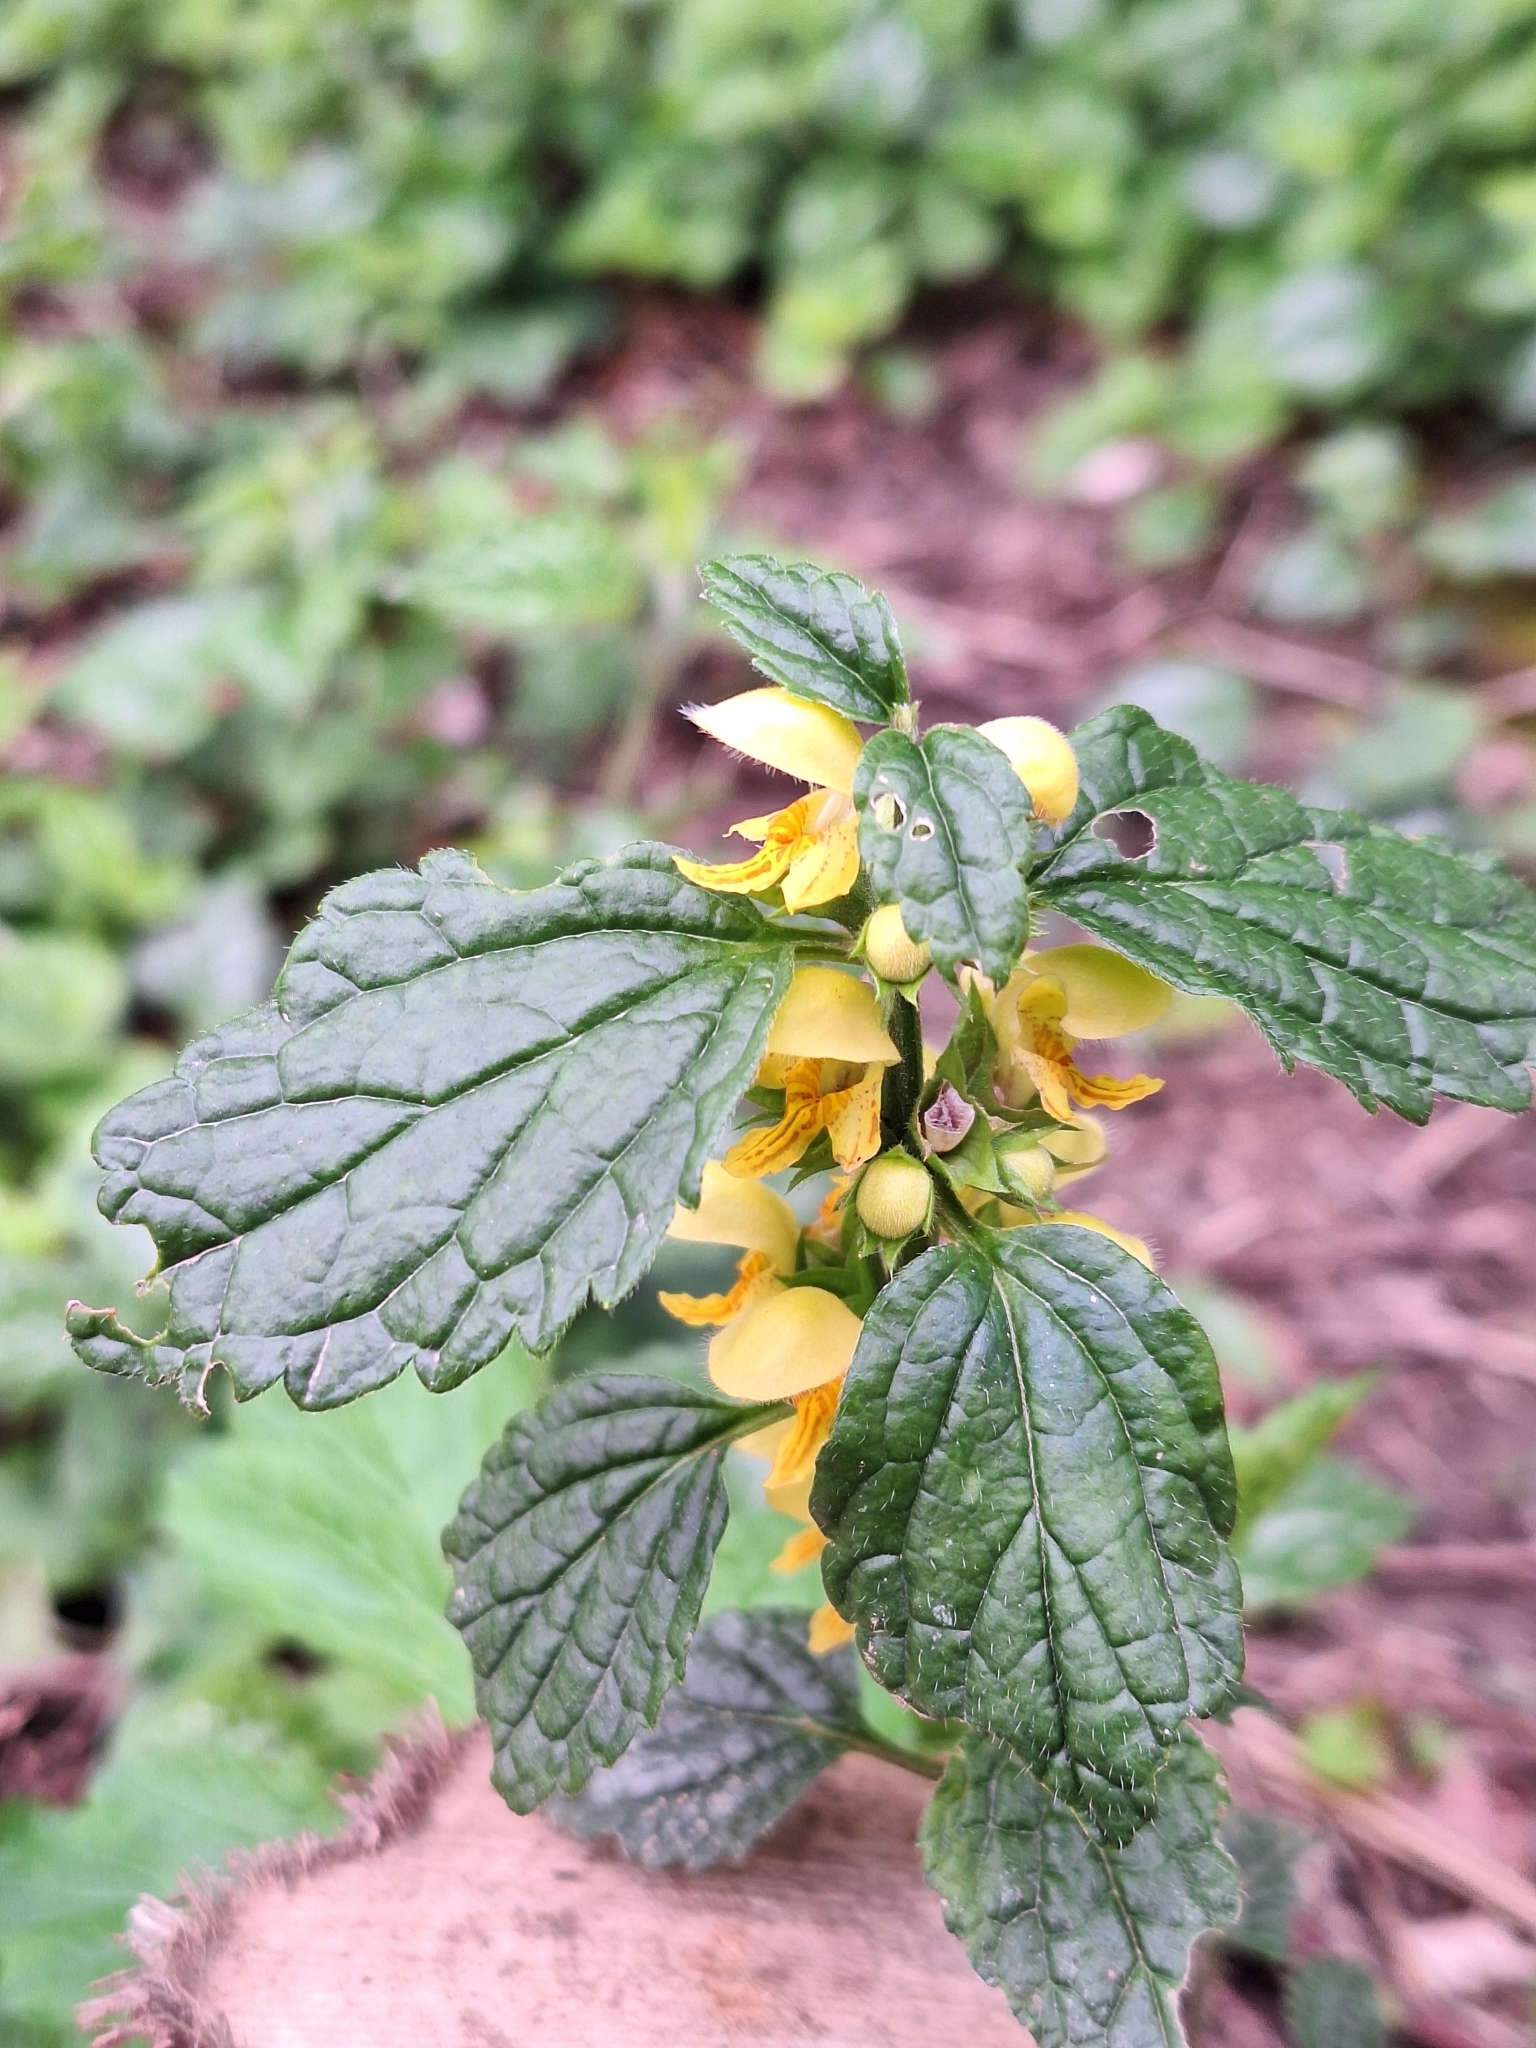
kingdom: Plantae
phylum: Tracheophyta
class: Magnoliopsida
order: Lamiales
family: Lamiaceae
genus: Lamium
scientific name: Lamium galeobdolon
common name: Yellow archangel
